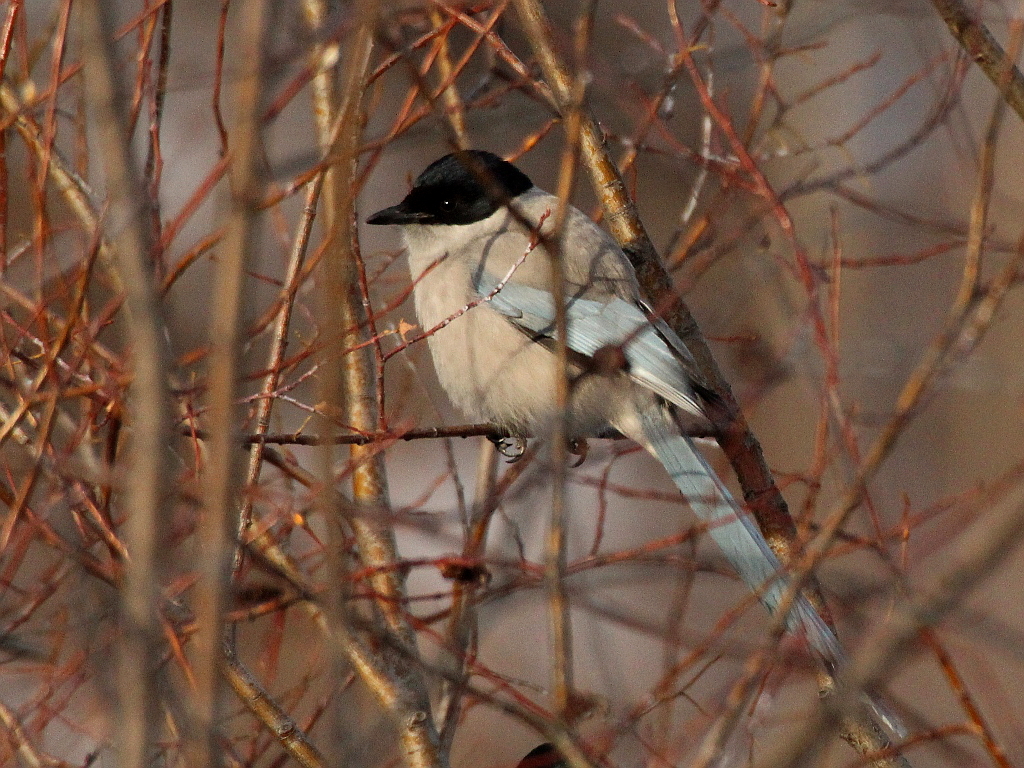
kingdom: Animalia
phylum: Chordata
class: Aves
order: Passeriformes
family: Corvidae
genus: Cyanopica
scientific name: Cyanopica cyanus
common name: Azure-winged magpie
